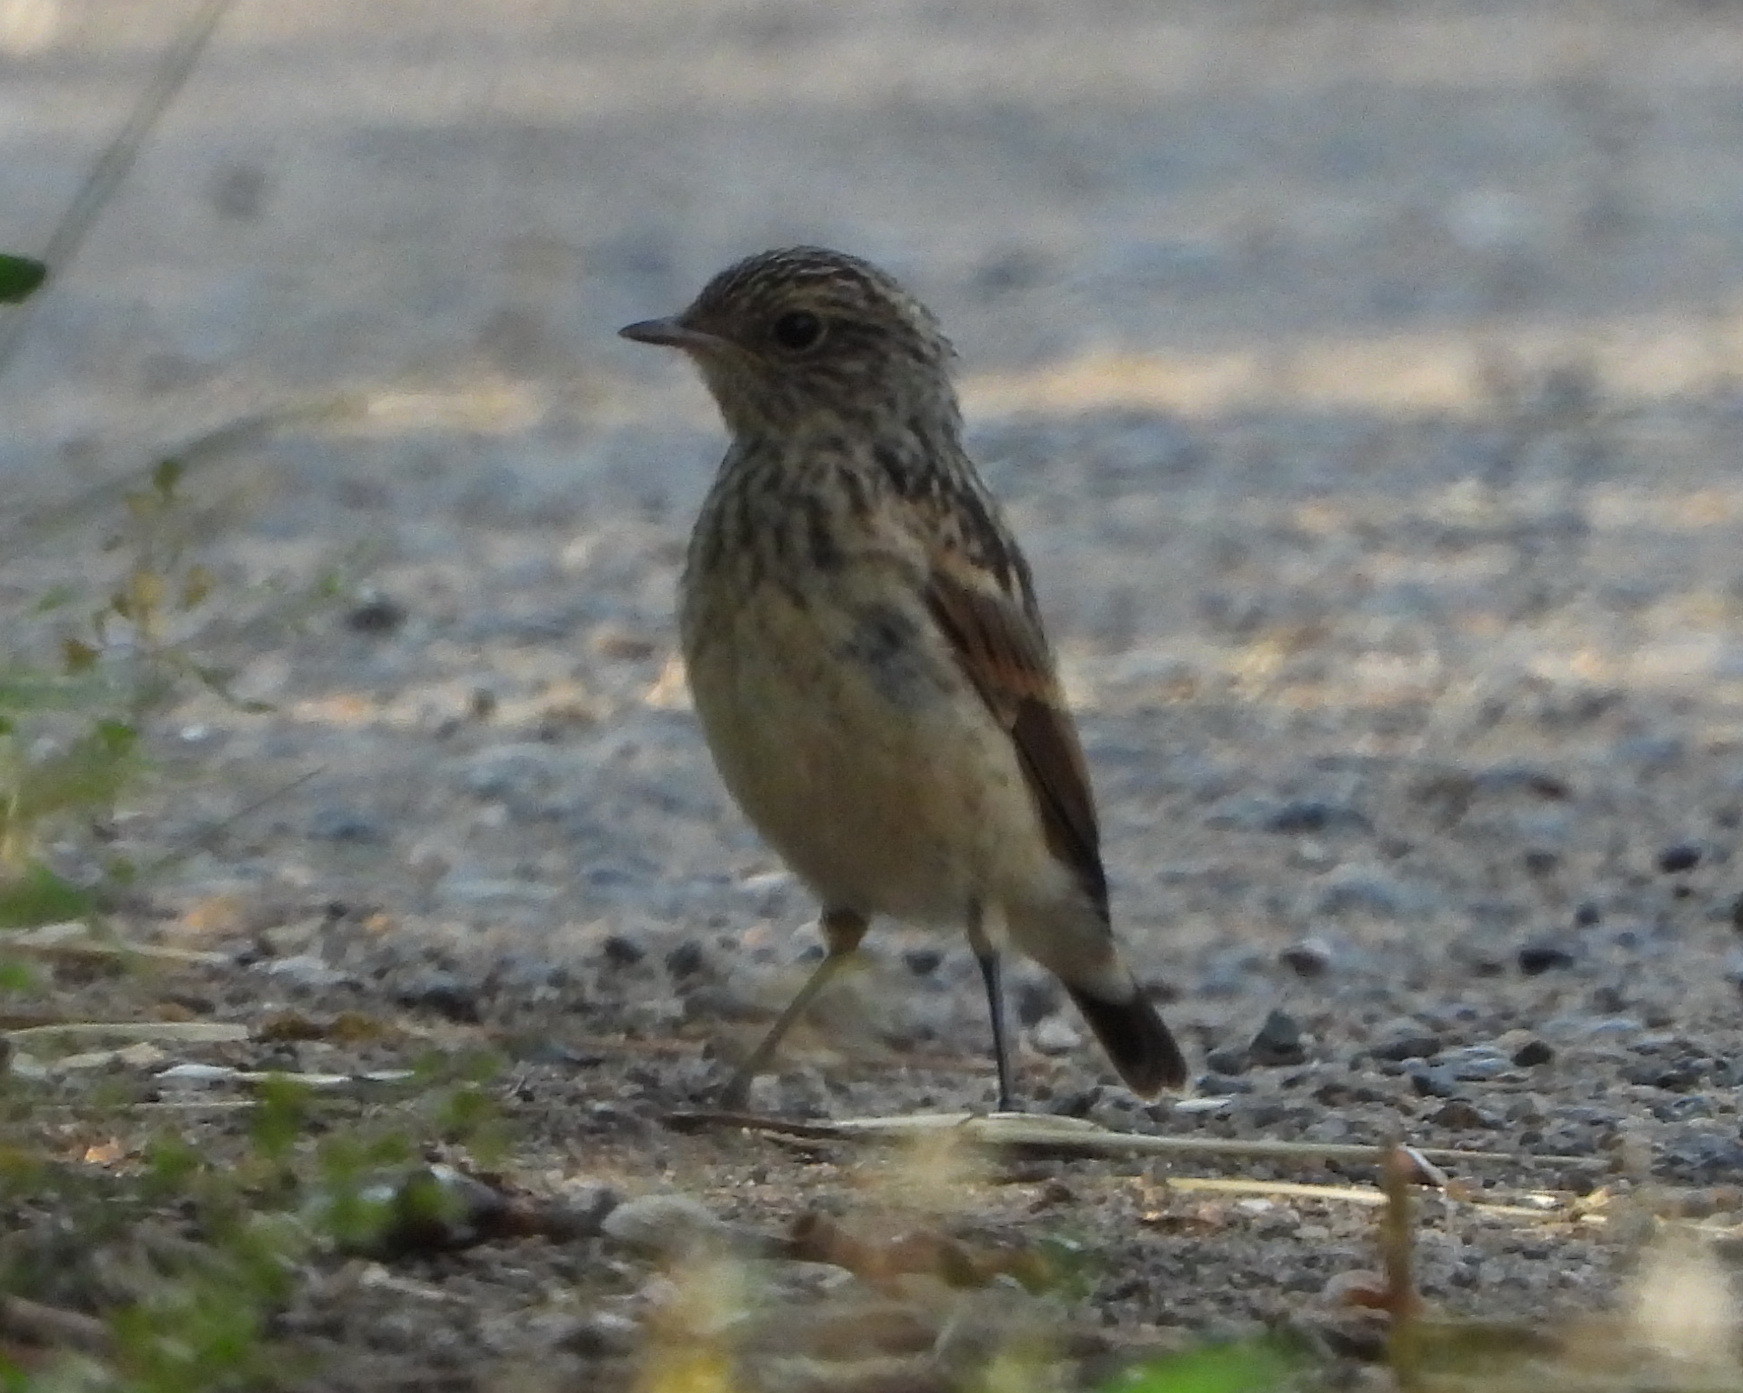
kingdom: Animalia
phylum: Chordata
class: Aves
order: Passeriformes
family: Muscicapidae
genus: Saxicola
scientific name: Saxicola maurus
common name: Siberian stonechat
